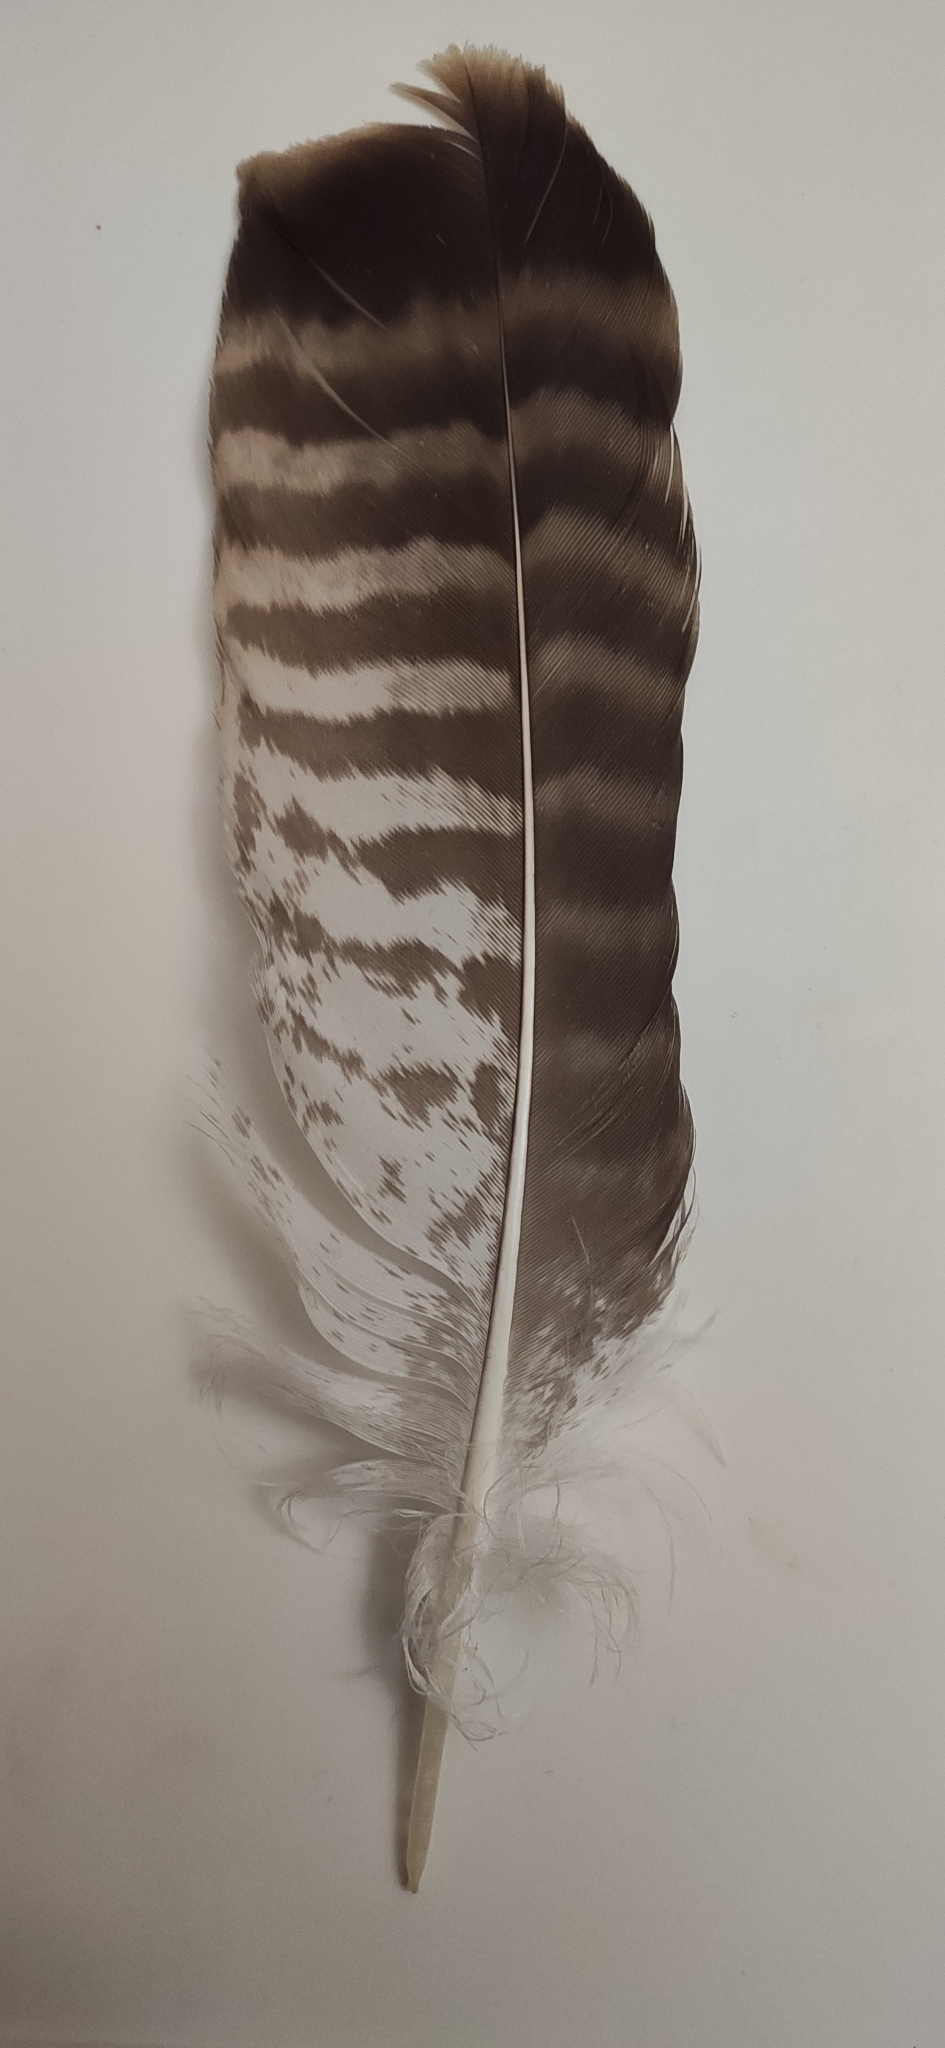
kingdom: Animalia
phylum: Chordata
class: Aves
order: Accipitriformes
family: Accipitridae
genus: Buteo
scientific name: Buteo buteo
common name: Common buzzard
